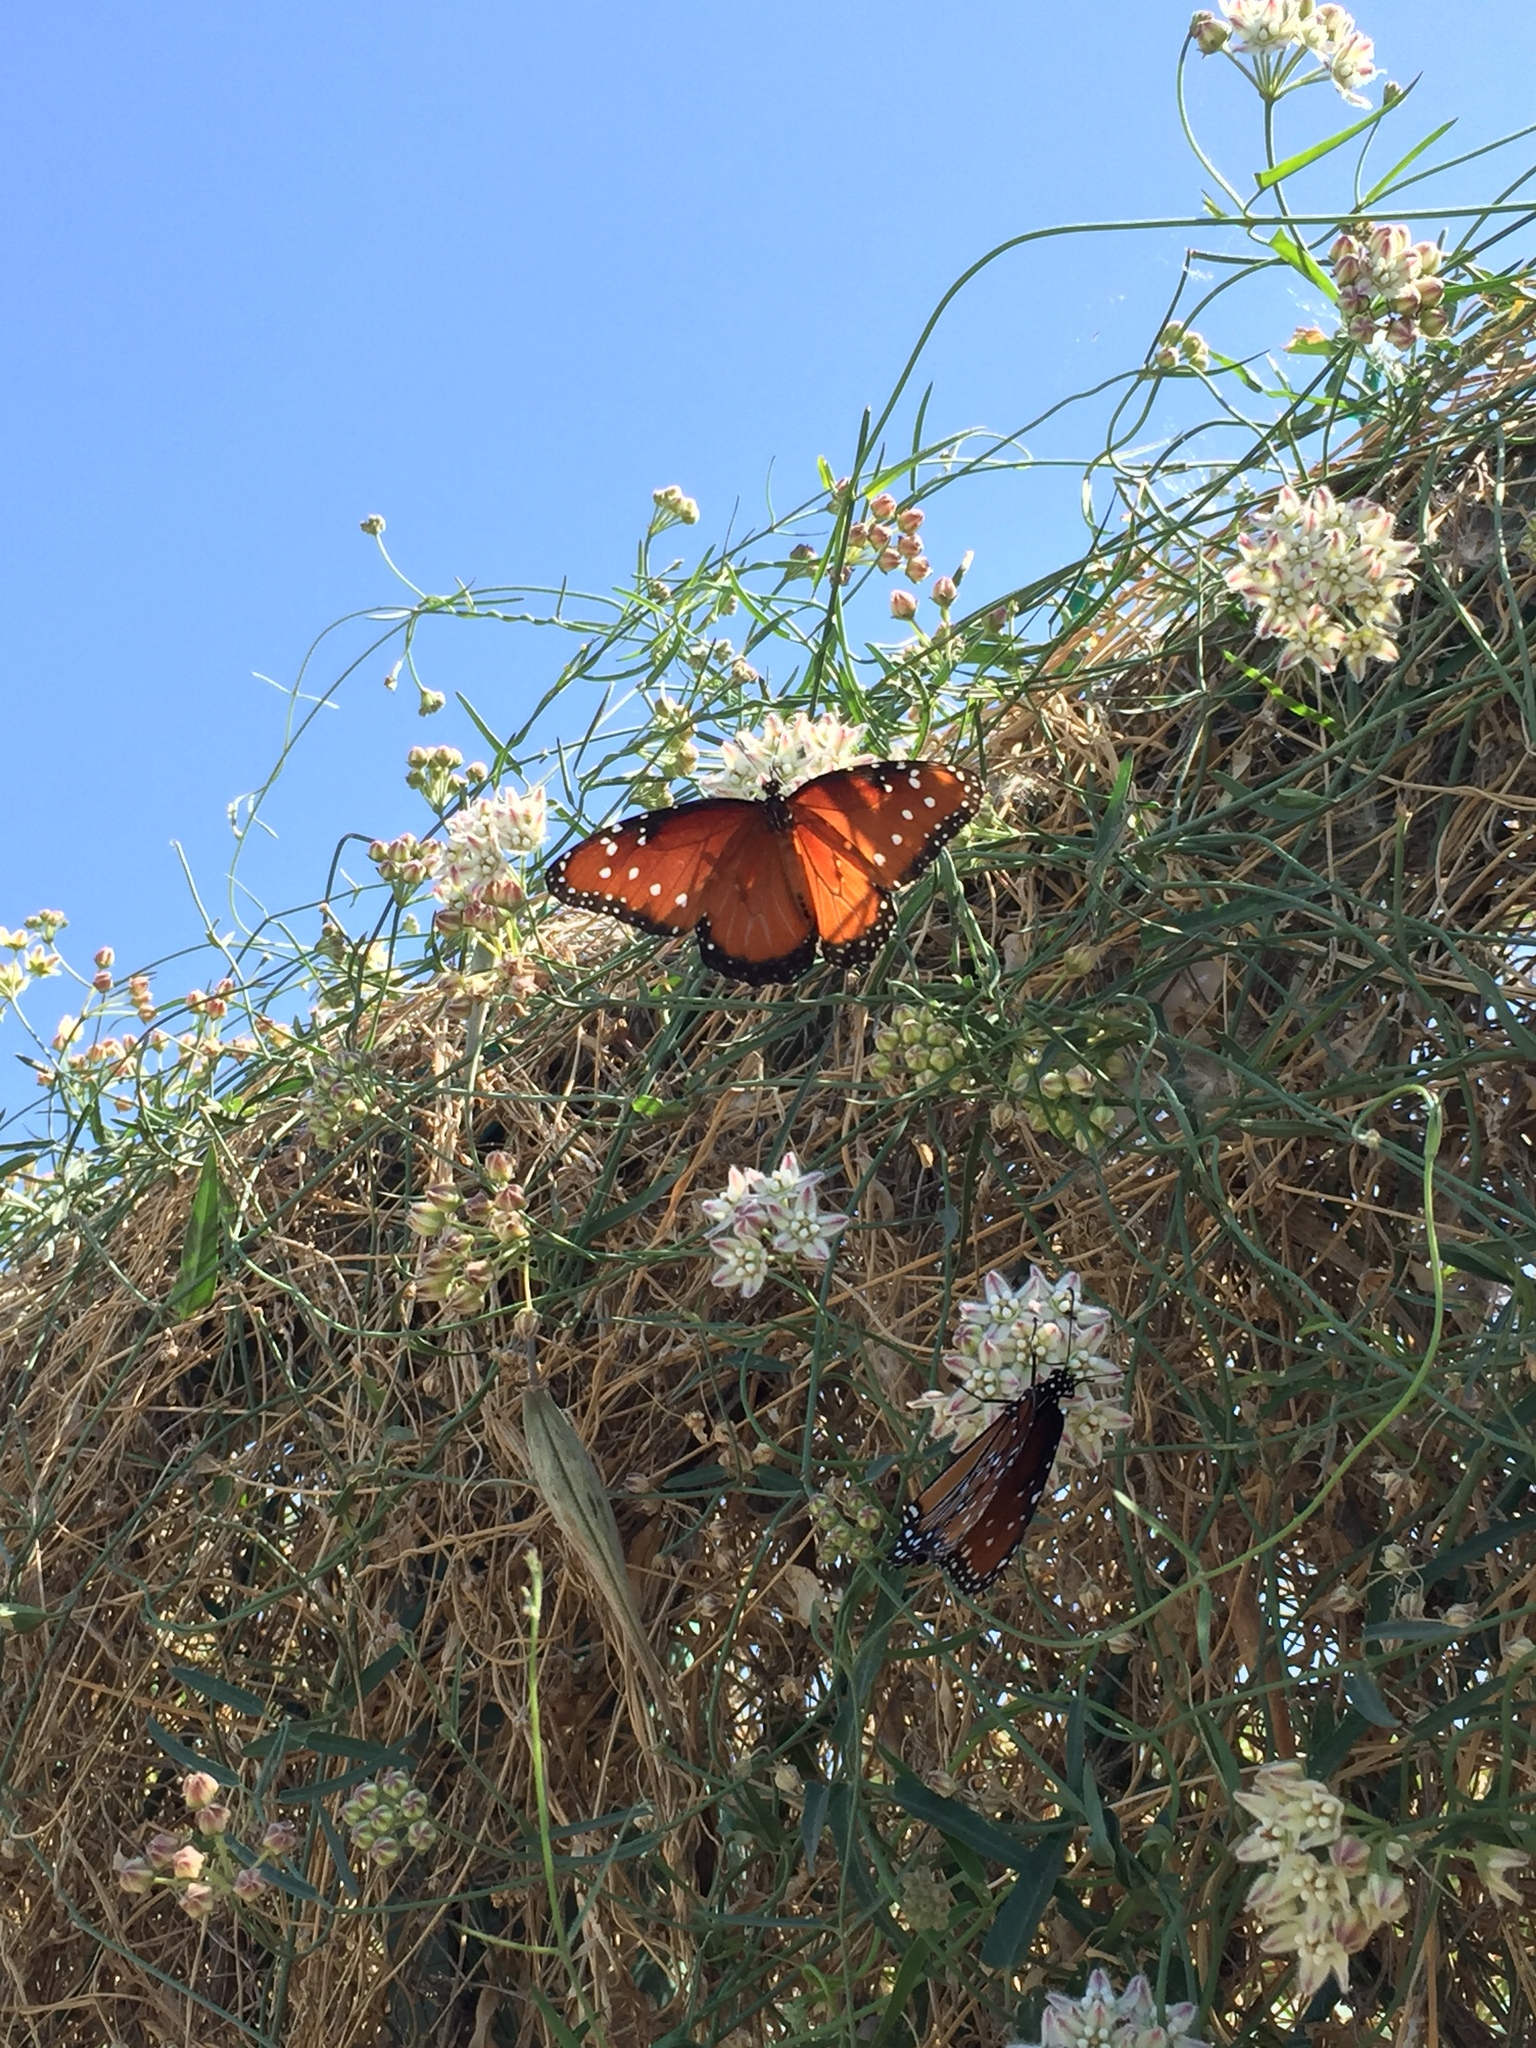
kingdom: Animalia
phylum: Arthropoda
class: Insecta
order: Lepidoptera
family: Nymphalidae
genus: Danaus
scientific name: Danaus gilippus
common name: Queen
